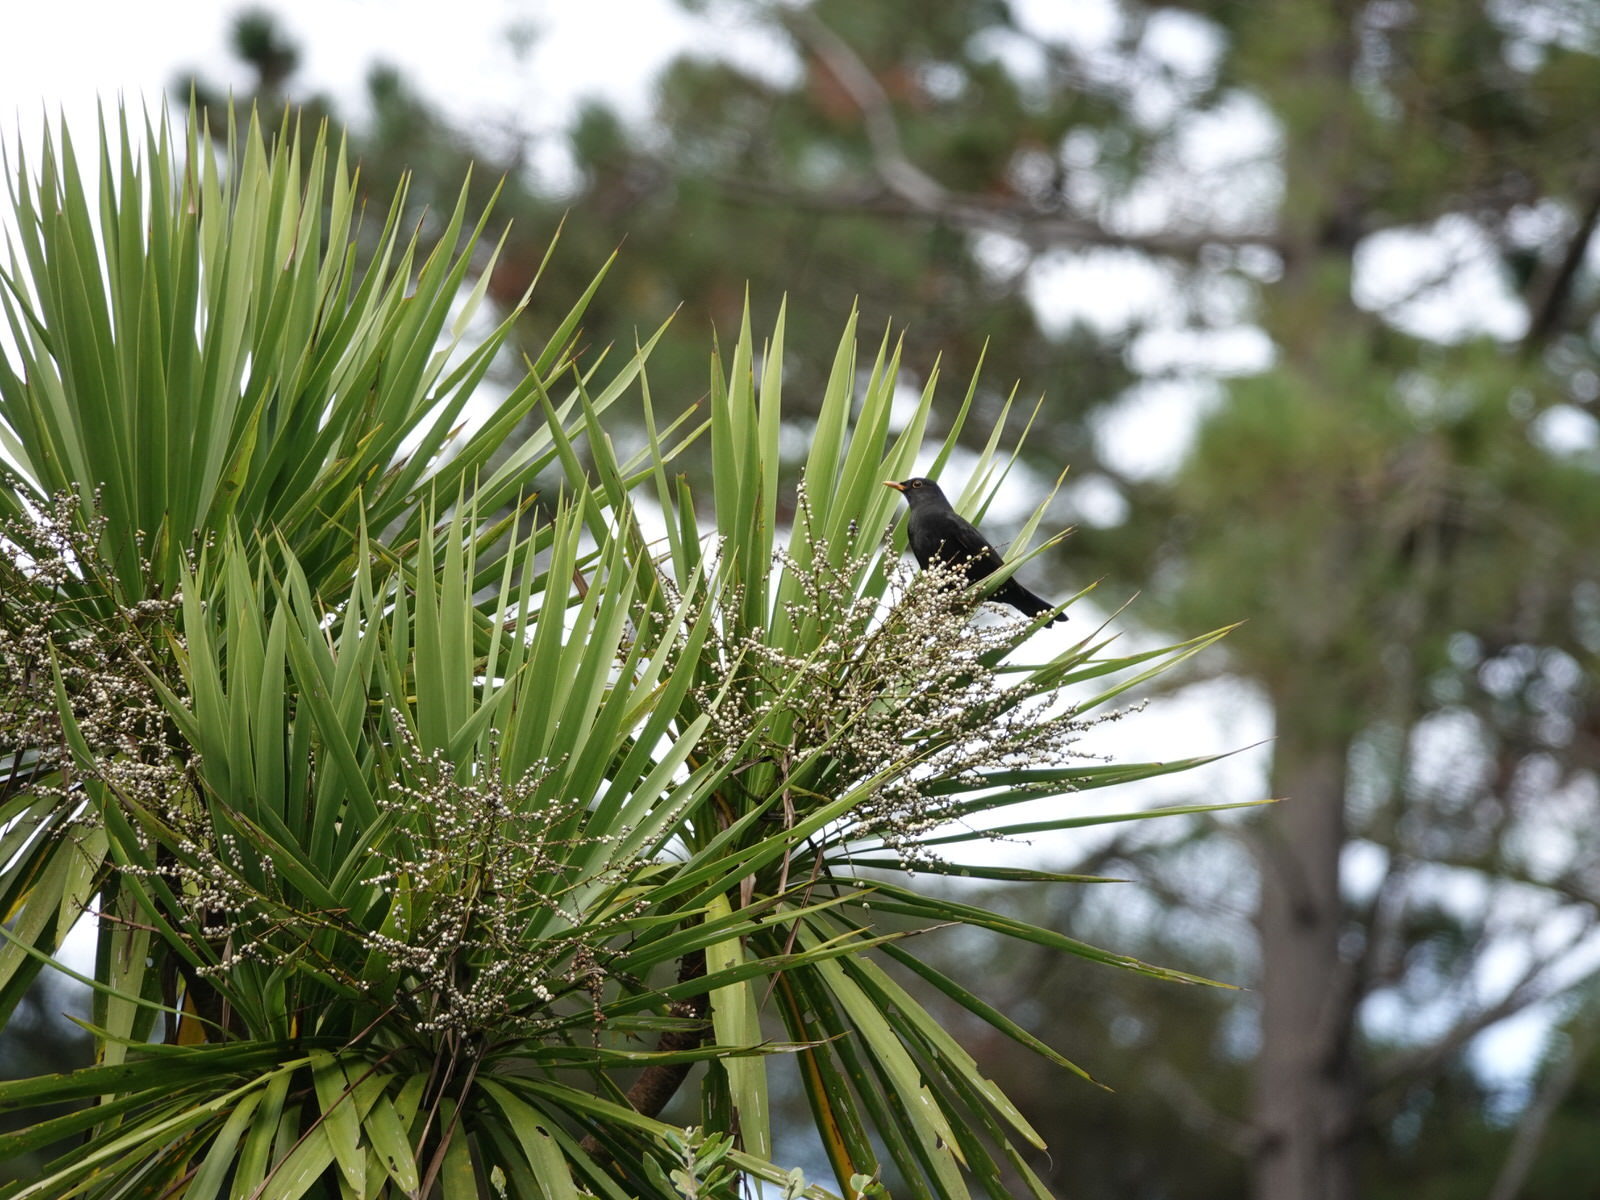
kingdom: Animalia
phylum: Chordata
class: Aves
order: Passeriformes
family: Turdidae
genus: Turdus
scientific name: Turdus merula
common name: Common blackbird
